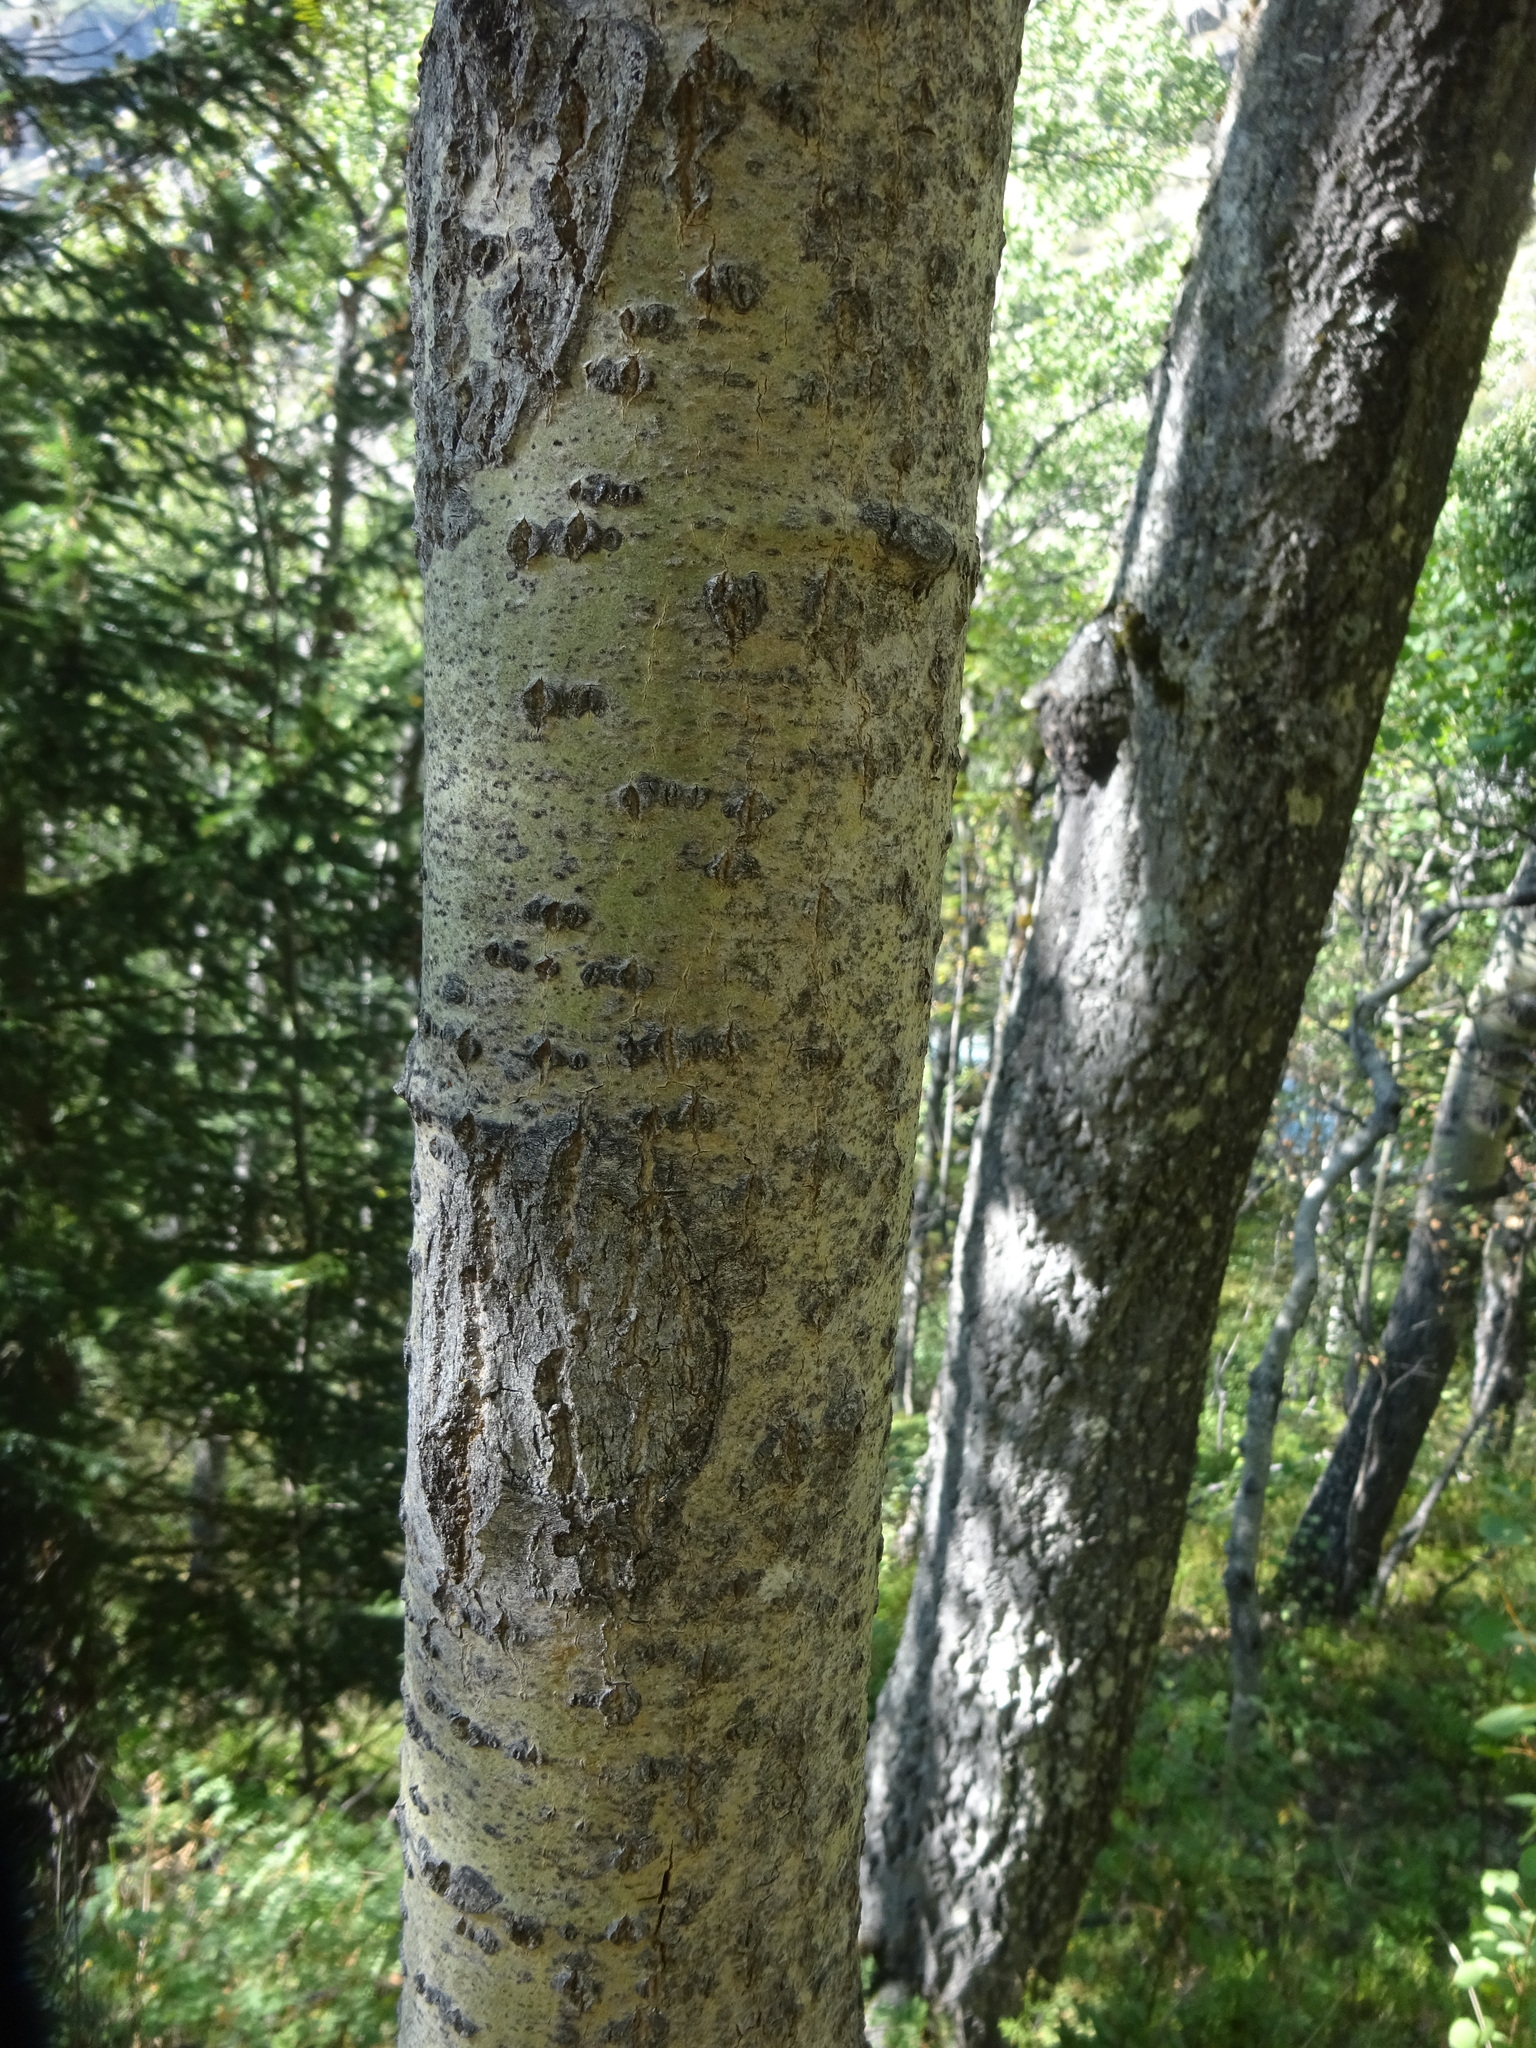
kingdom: Plantae
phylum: Tracheophyta
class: Magnoliopsida
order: Malpighiales
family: Salicaceae
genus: Populus
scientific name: Populus tremula
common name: European aspen
